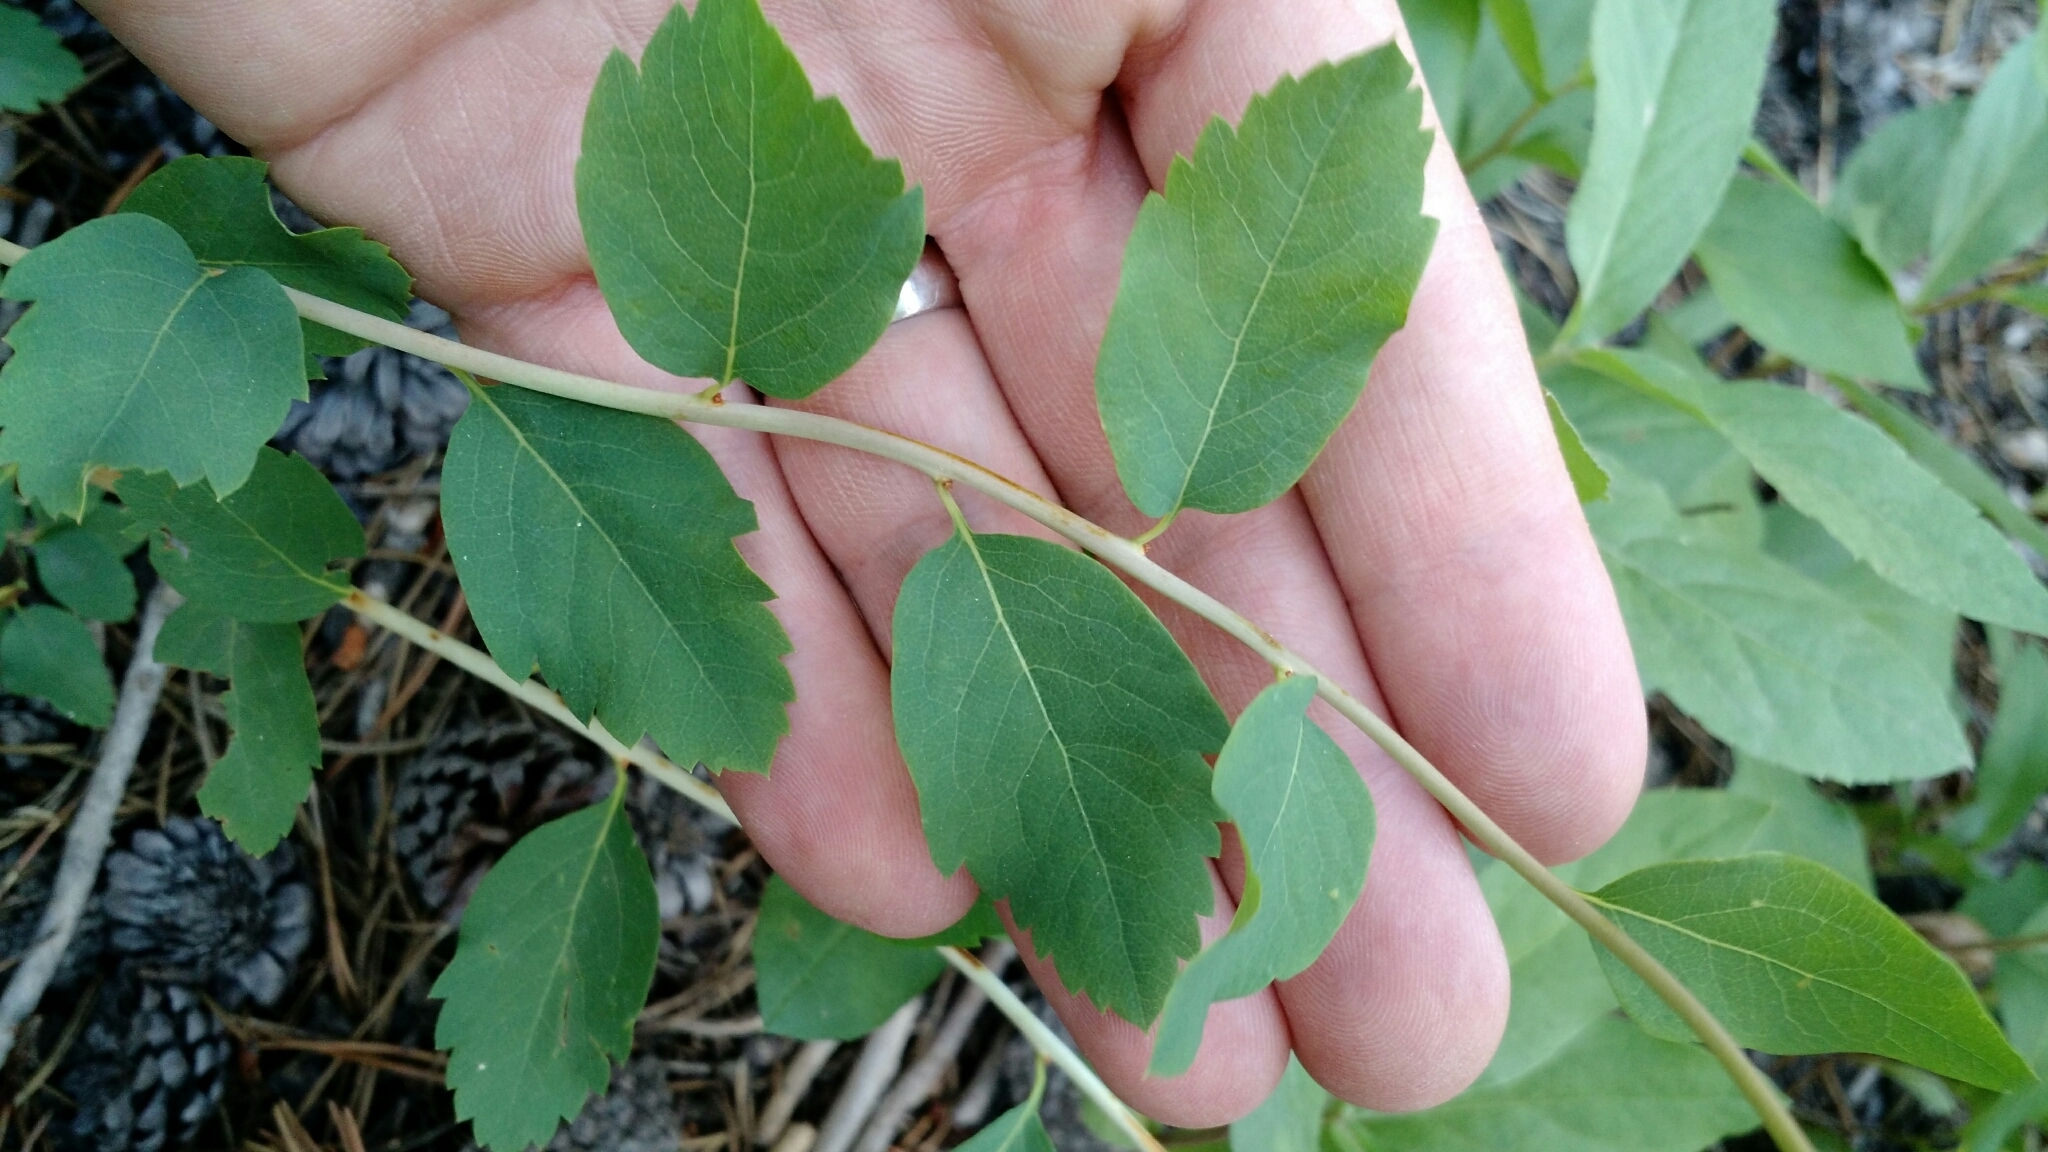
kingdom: Plantae
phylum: Tracheophyta
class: Magnoliopsida
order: Rosales
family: Rosaceae
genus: Spiraea
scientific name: Spiraea lucida
